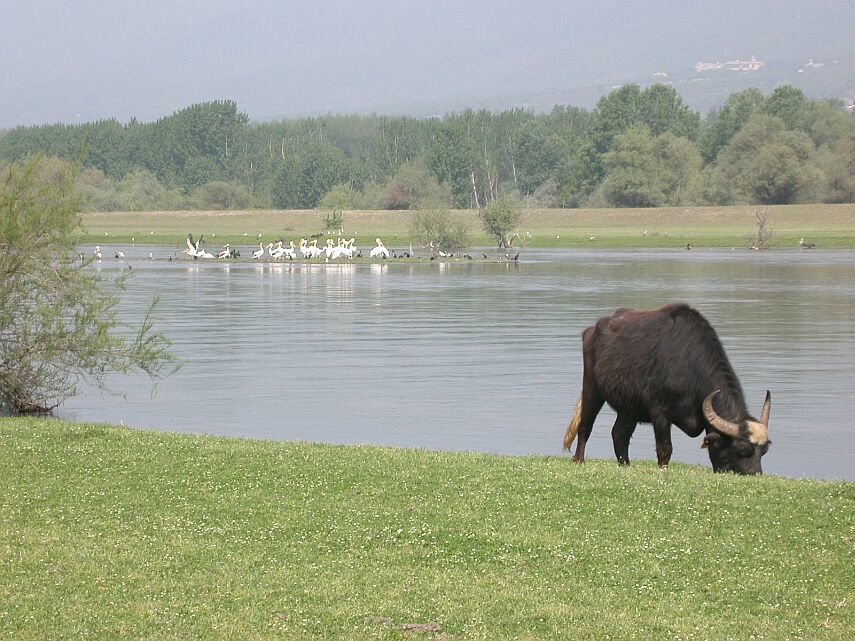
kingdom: Animalia
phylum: Chordata
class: Mammalia
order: Artiodactyla
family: Bovidae
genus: Bubalus
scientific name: Bubalus bubalis
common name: Water buffalo
